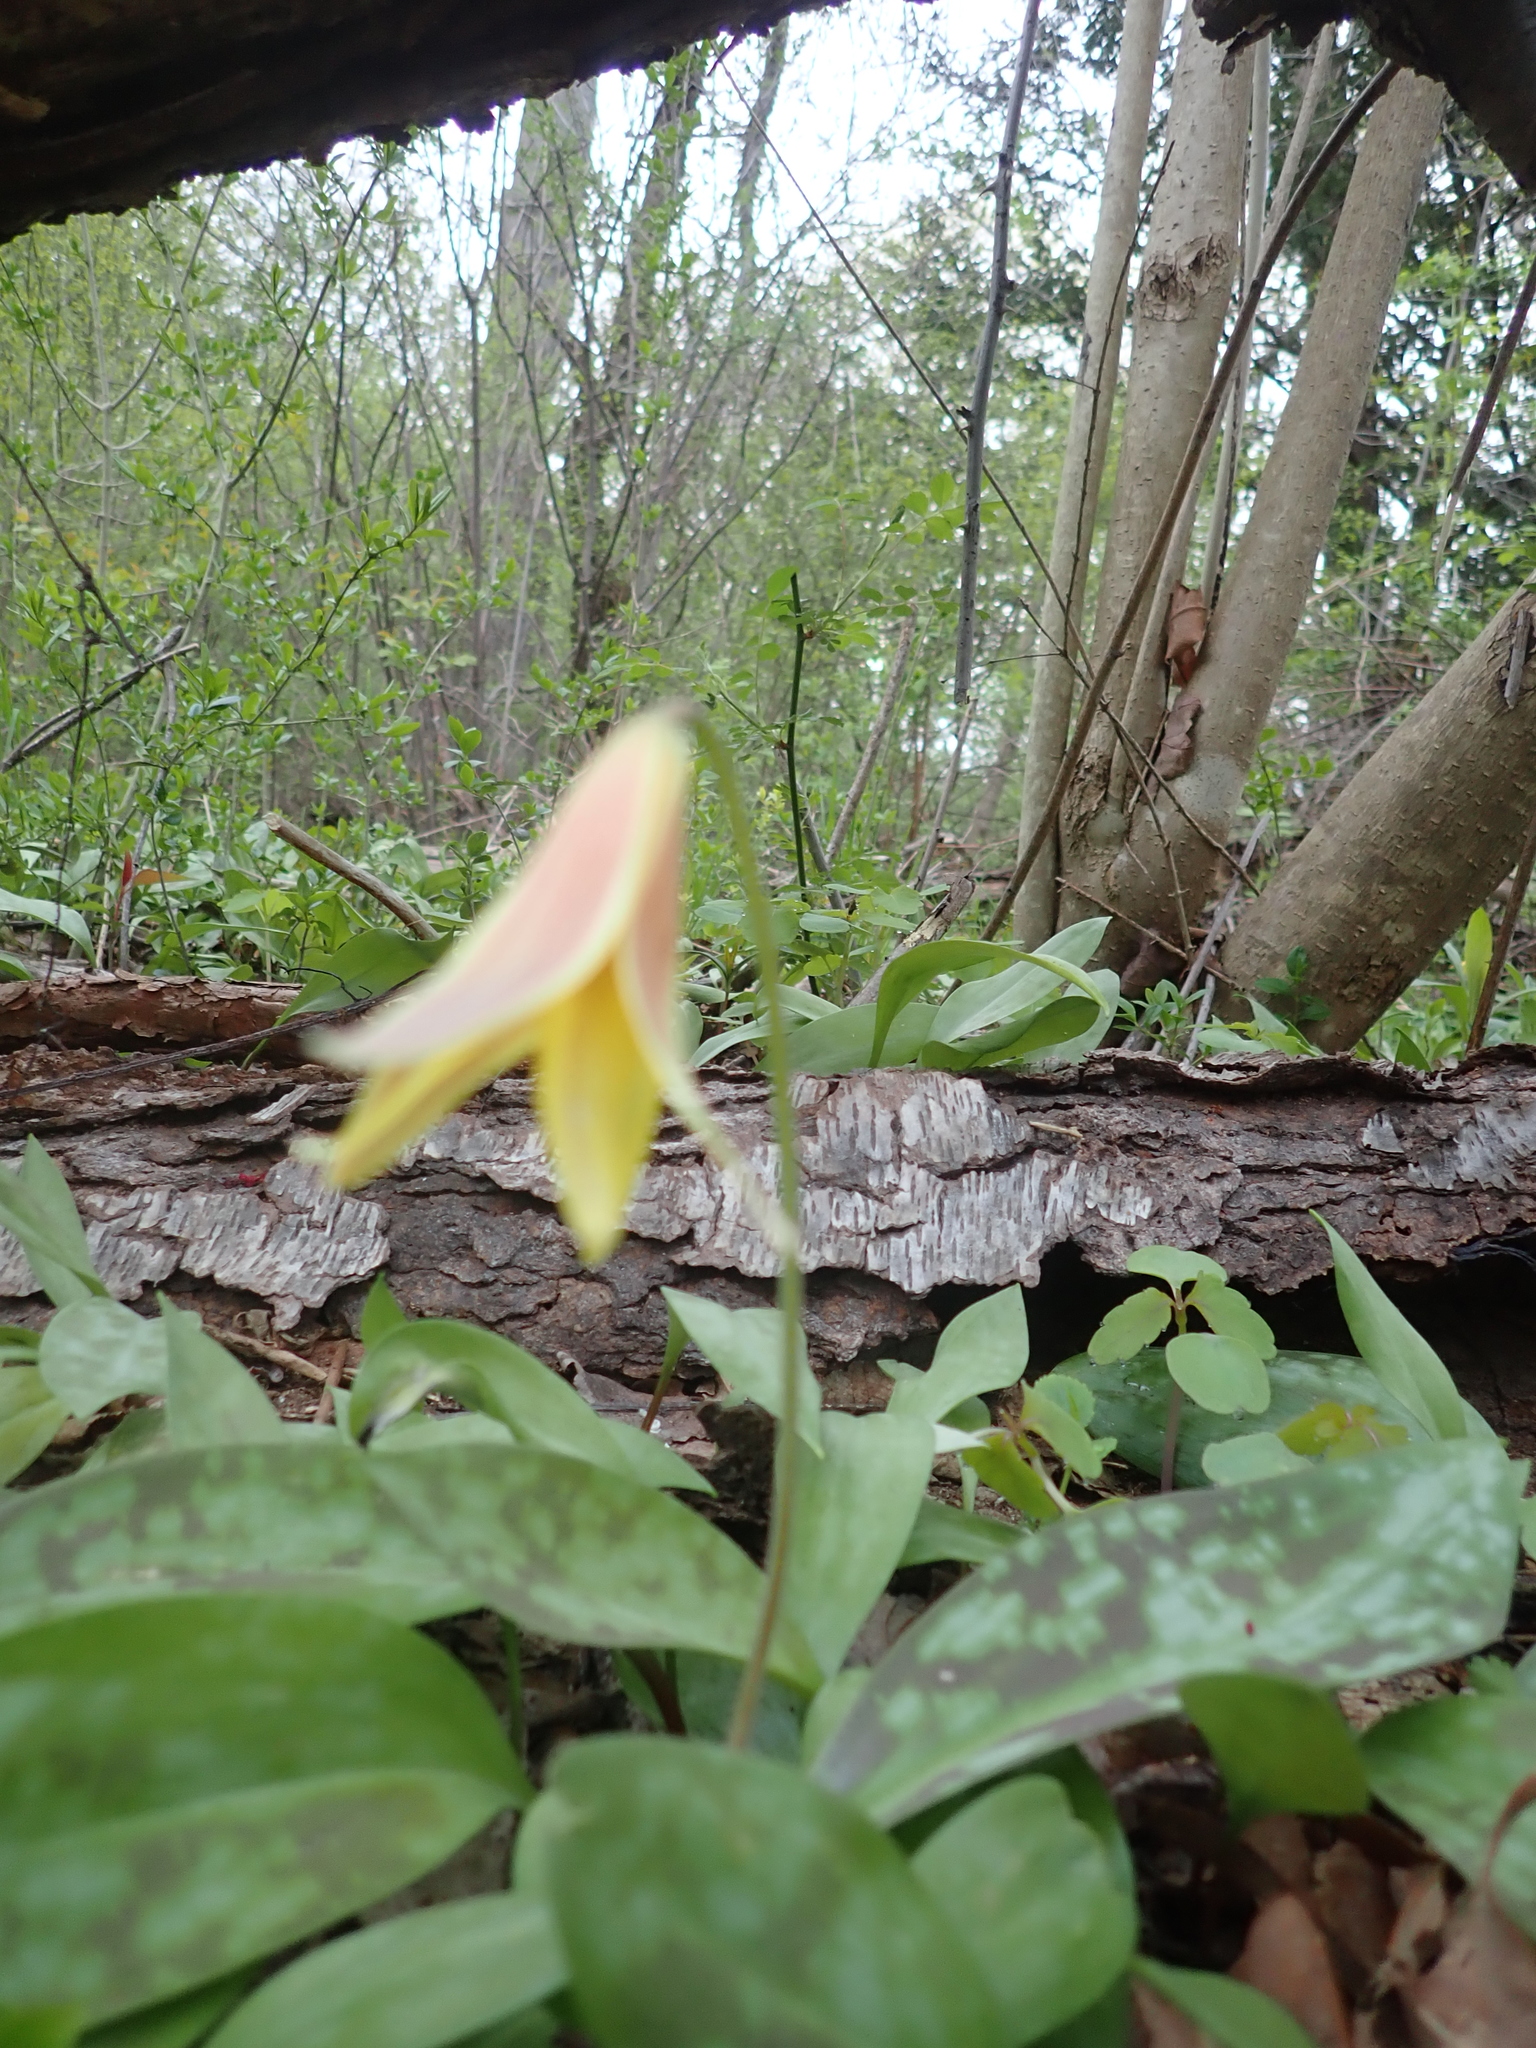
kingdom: Plantae
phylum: Tracheophyta
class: Liliopsida
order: Liliales
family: Liliaceae
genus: Erythronium
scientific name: Erythronium americanum
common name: Yellow adder's-tongue
